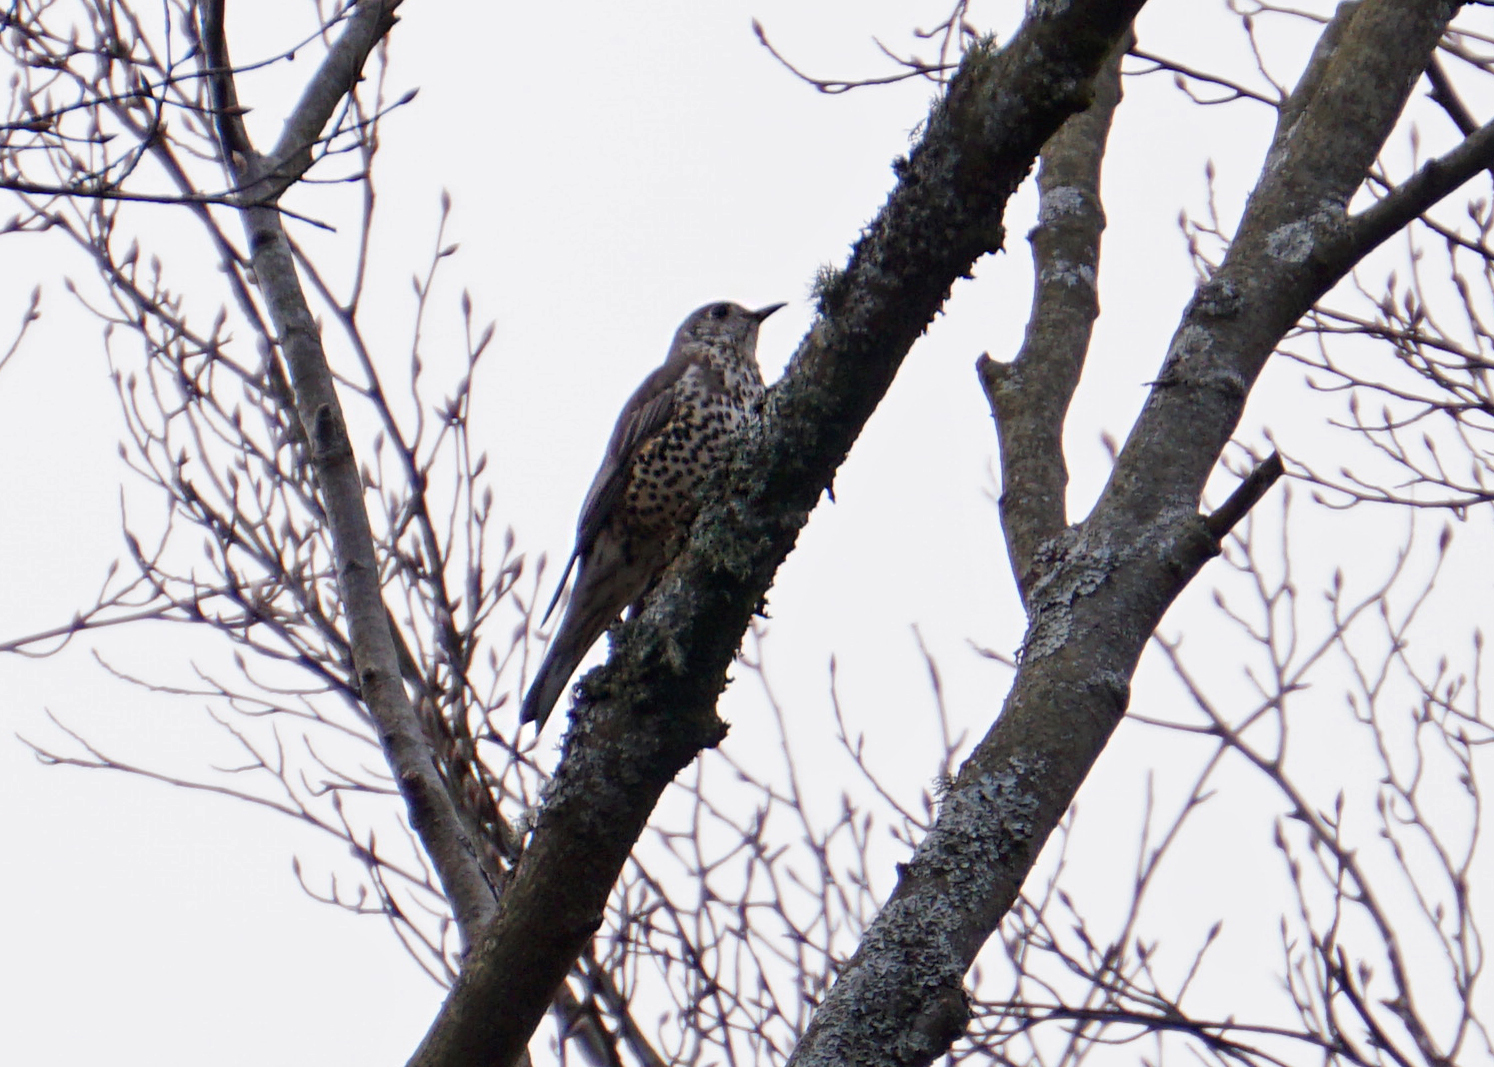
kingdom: Animalia
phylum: Chordata
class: Aves
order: Passeriformes
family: Turdidae
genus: Turdus
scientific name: Turdus viscivorus
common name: Mistle thrush
